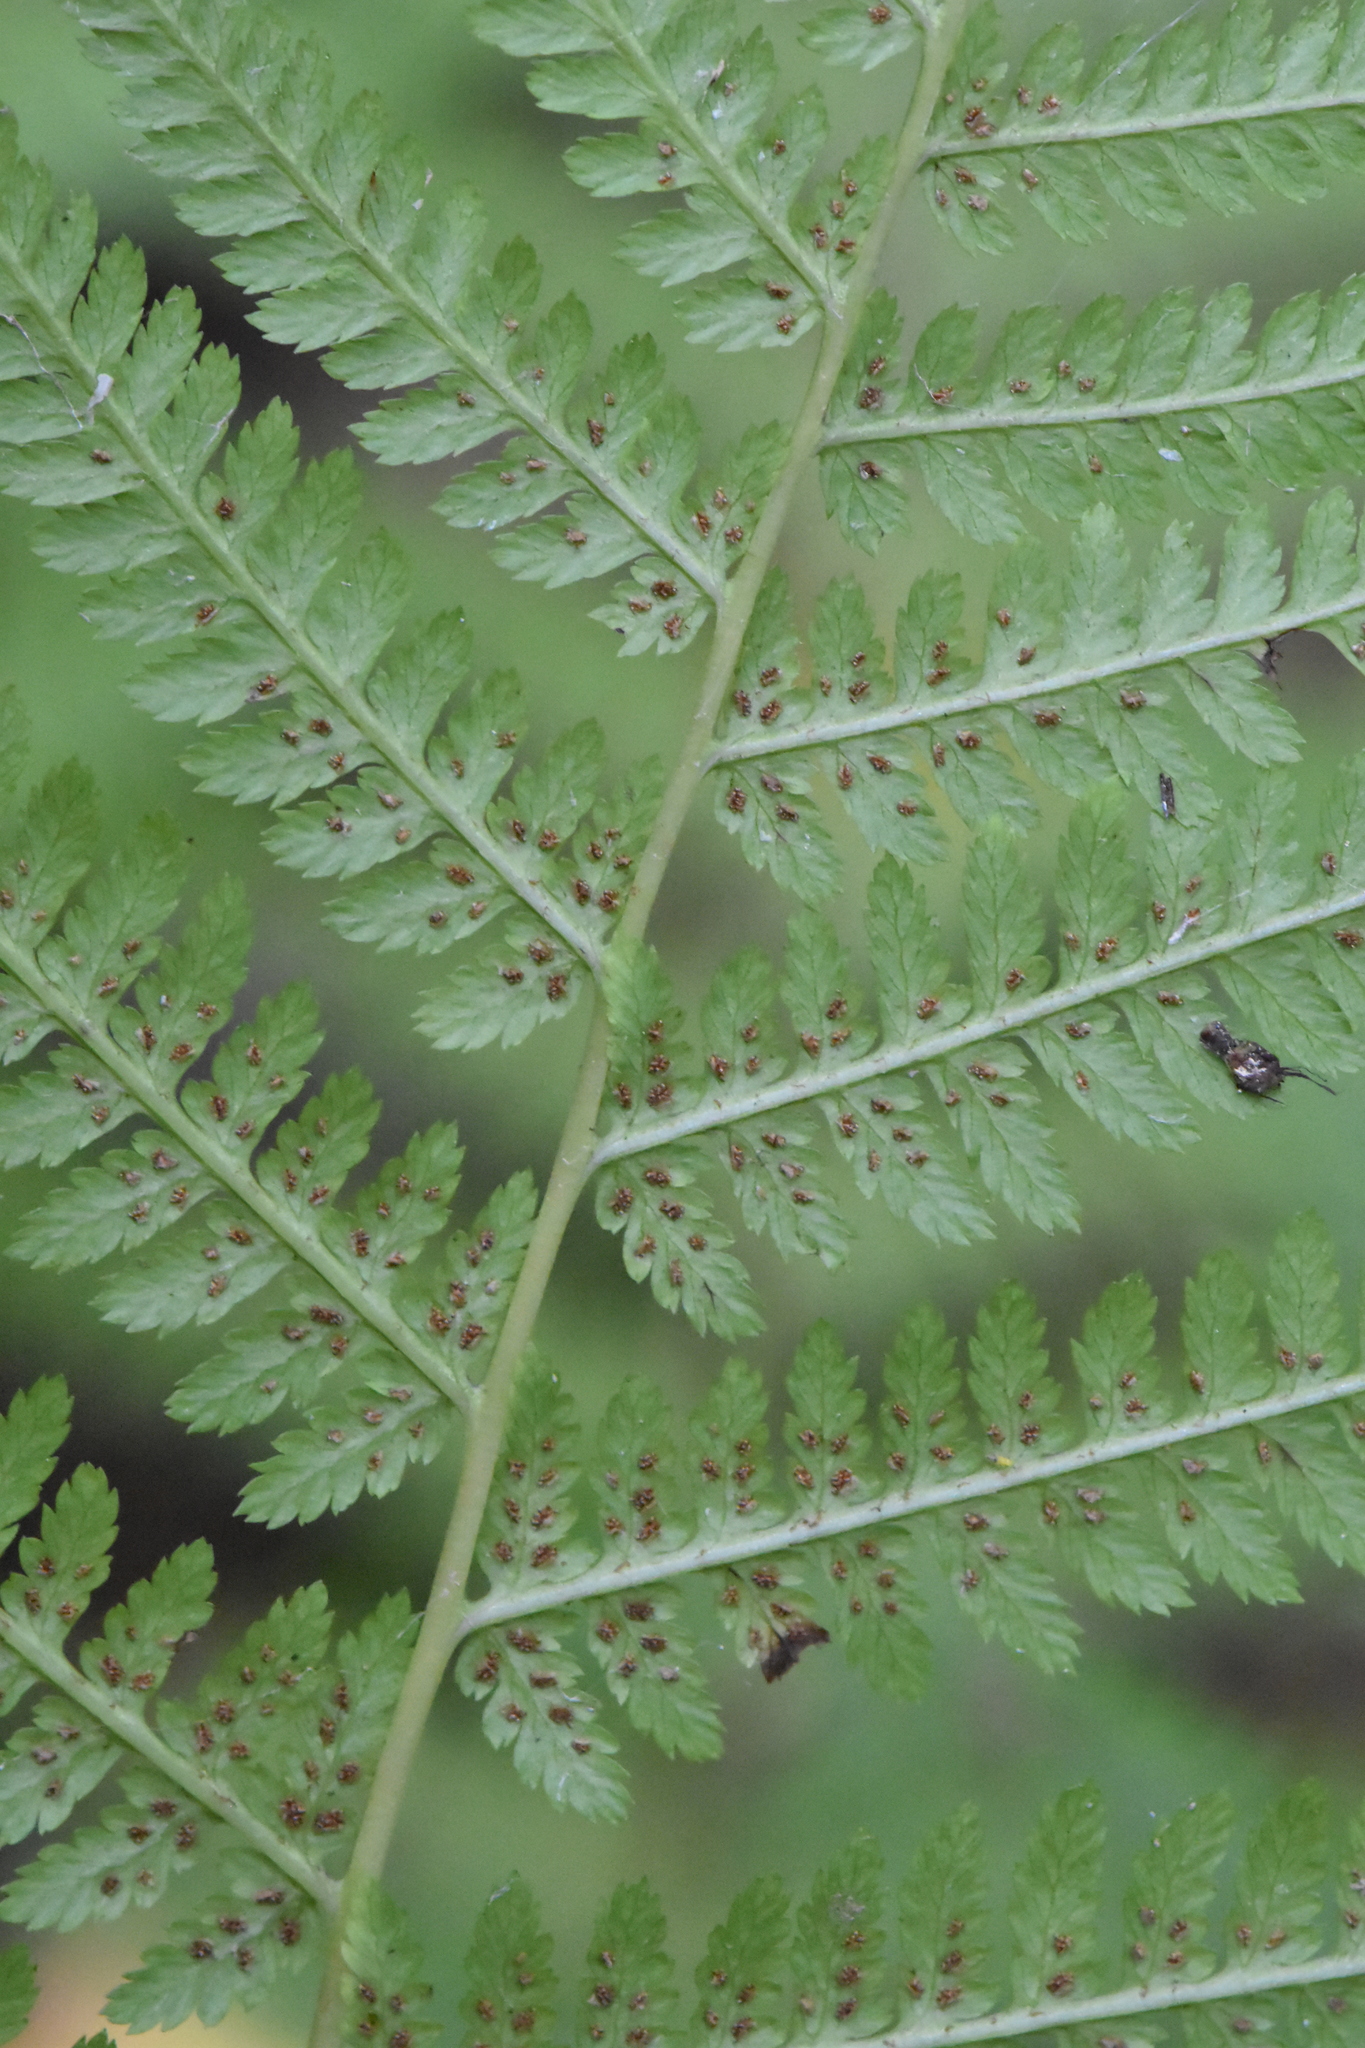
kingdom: Plantae
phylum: Tracheophyta
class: Polypodiopsida
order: Polypodiales
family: Athyriaceae
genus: Athyrium
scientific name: Athyrium filix-femina
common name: Lady fern
